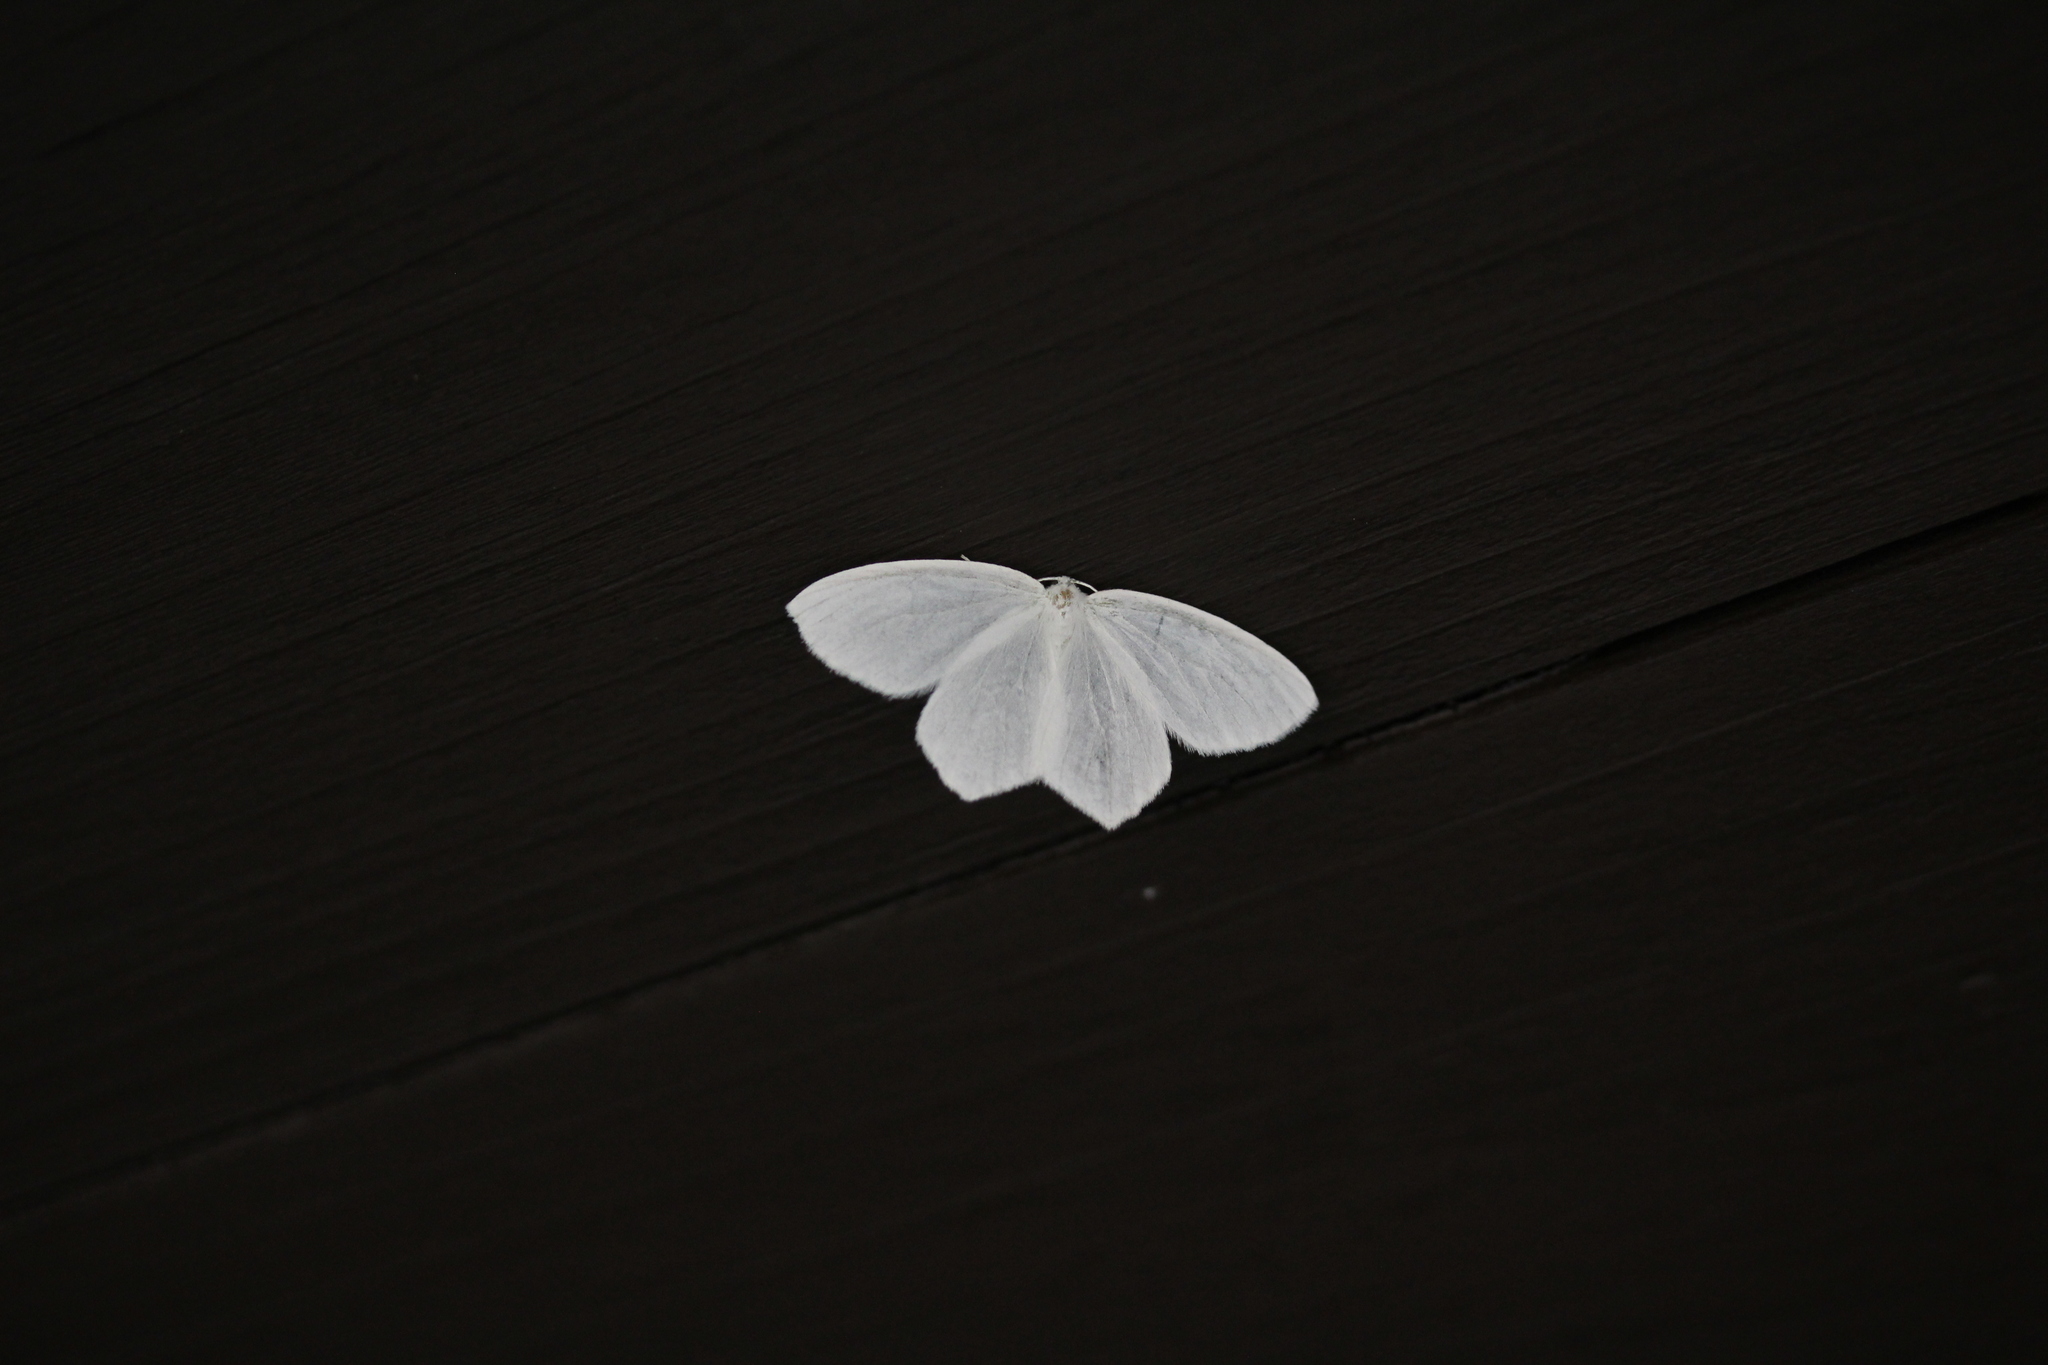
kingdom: Animalia
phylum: Arthropoda
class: Insecta
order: Lepidoptera
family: Geometridae
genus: Eugonobapta
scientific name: Eugonobapta nivosaria
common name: Snowy geometer
